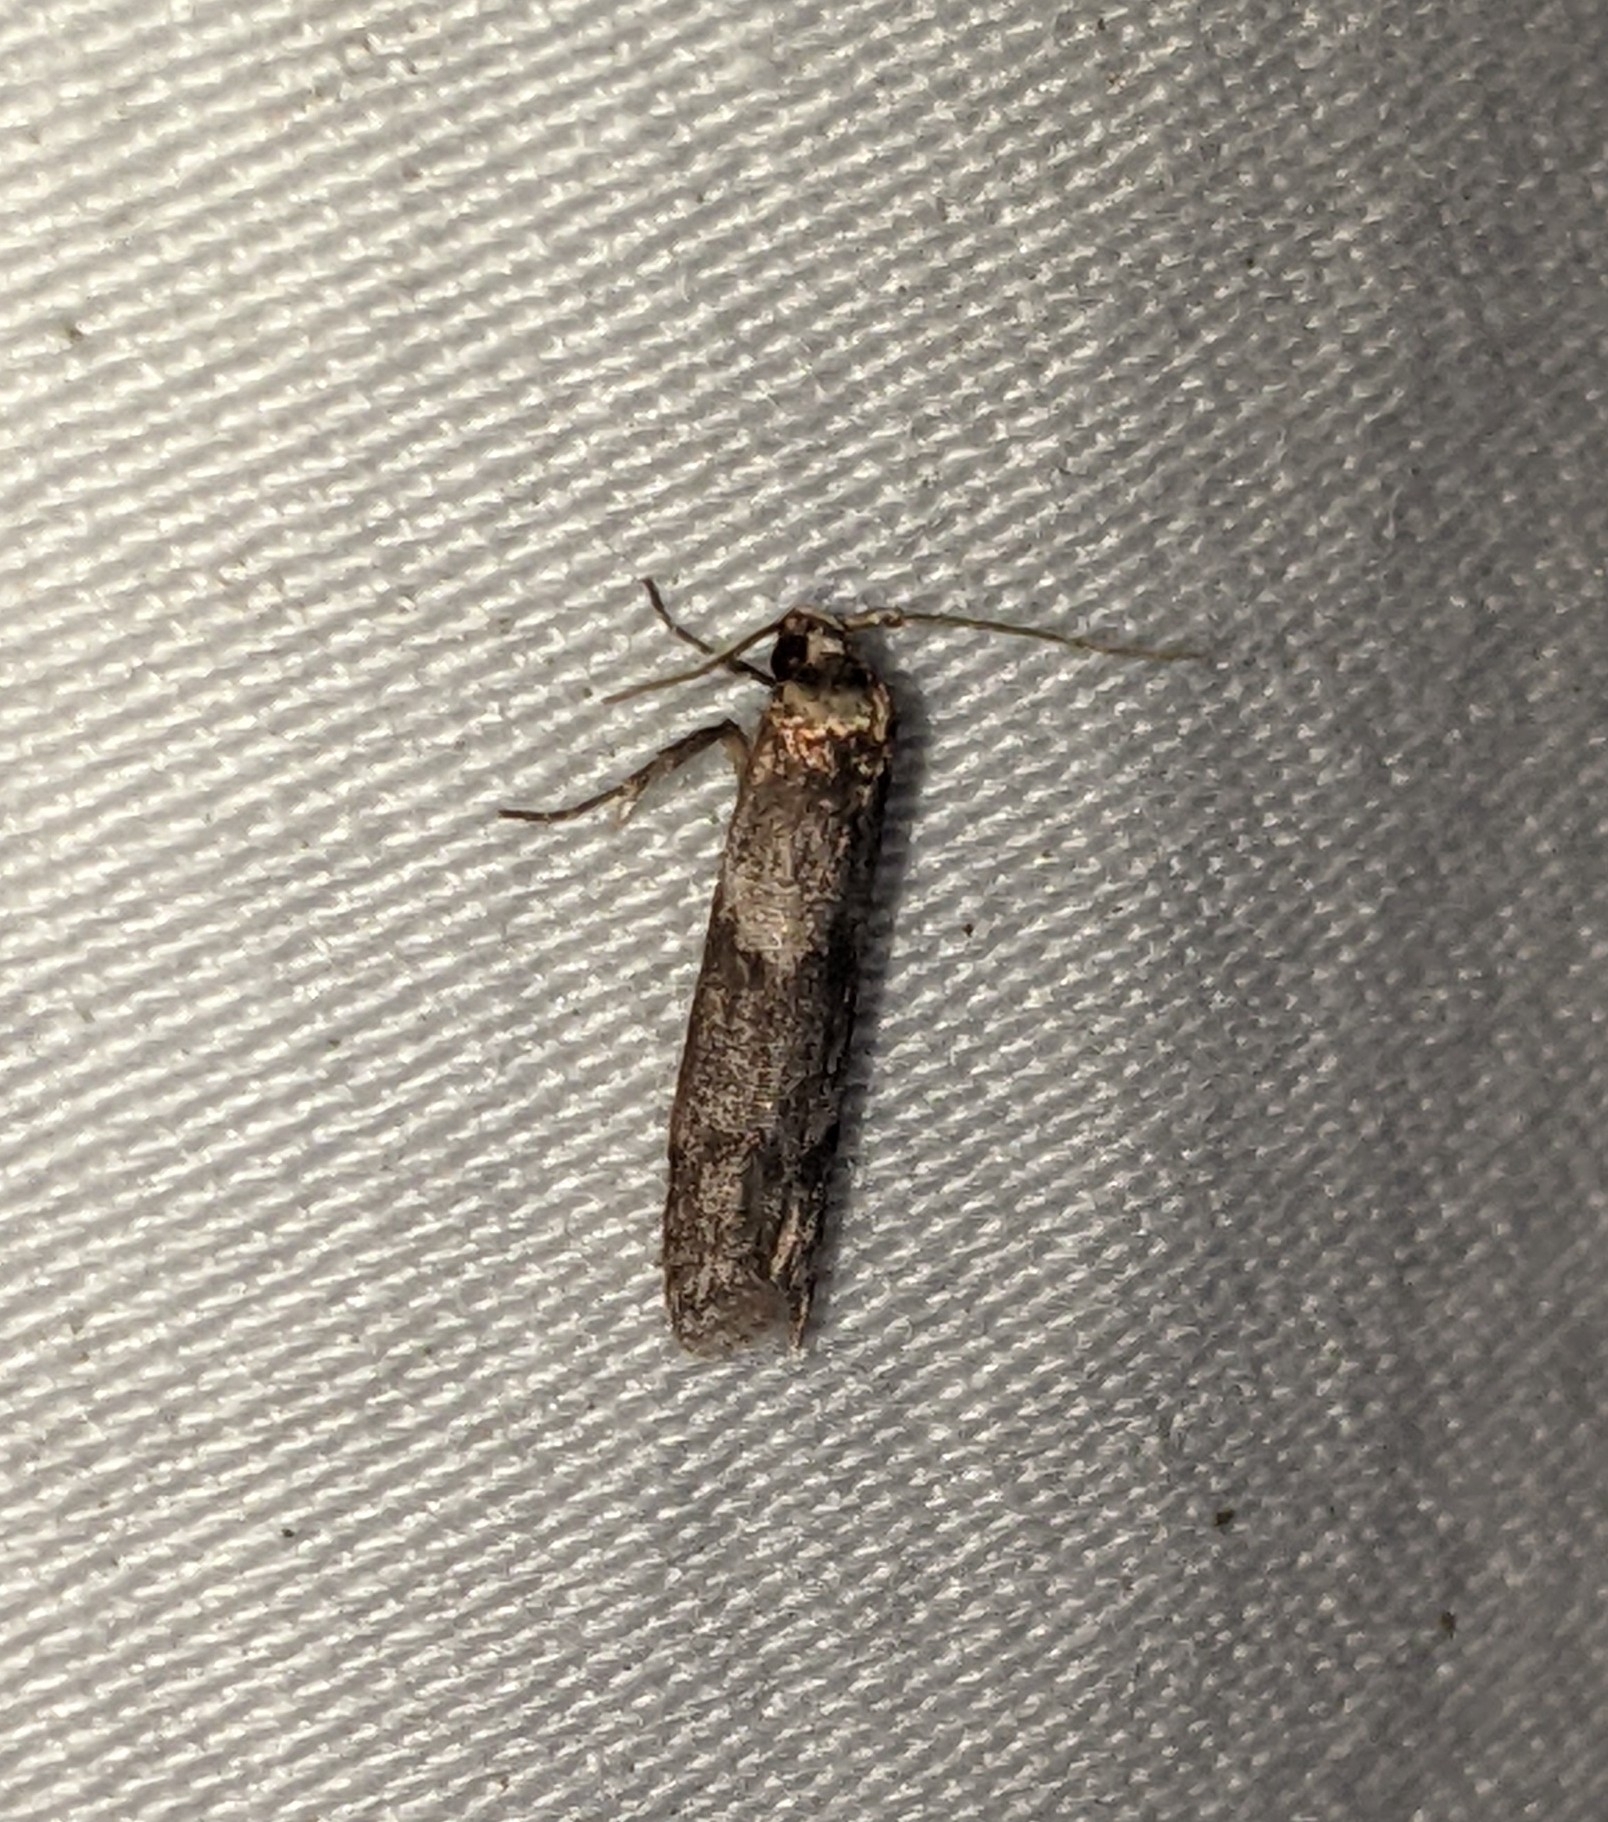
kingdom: Animalia
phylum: Arthropoda
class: Insecta
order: Lepidoptera
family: Blastobasidae
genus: Asaphocrita
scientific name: Asaphocrita aphidiella
